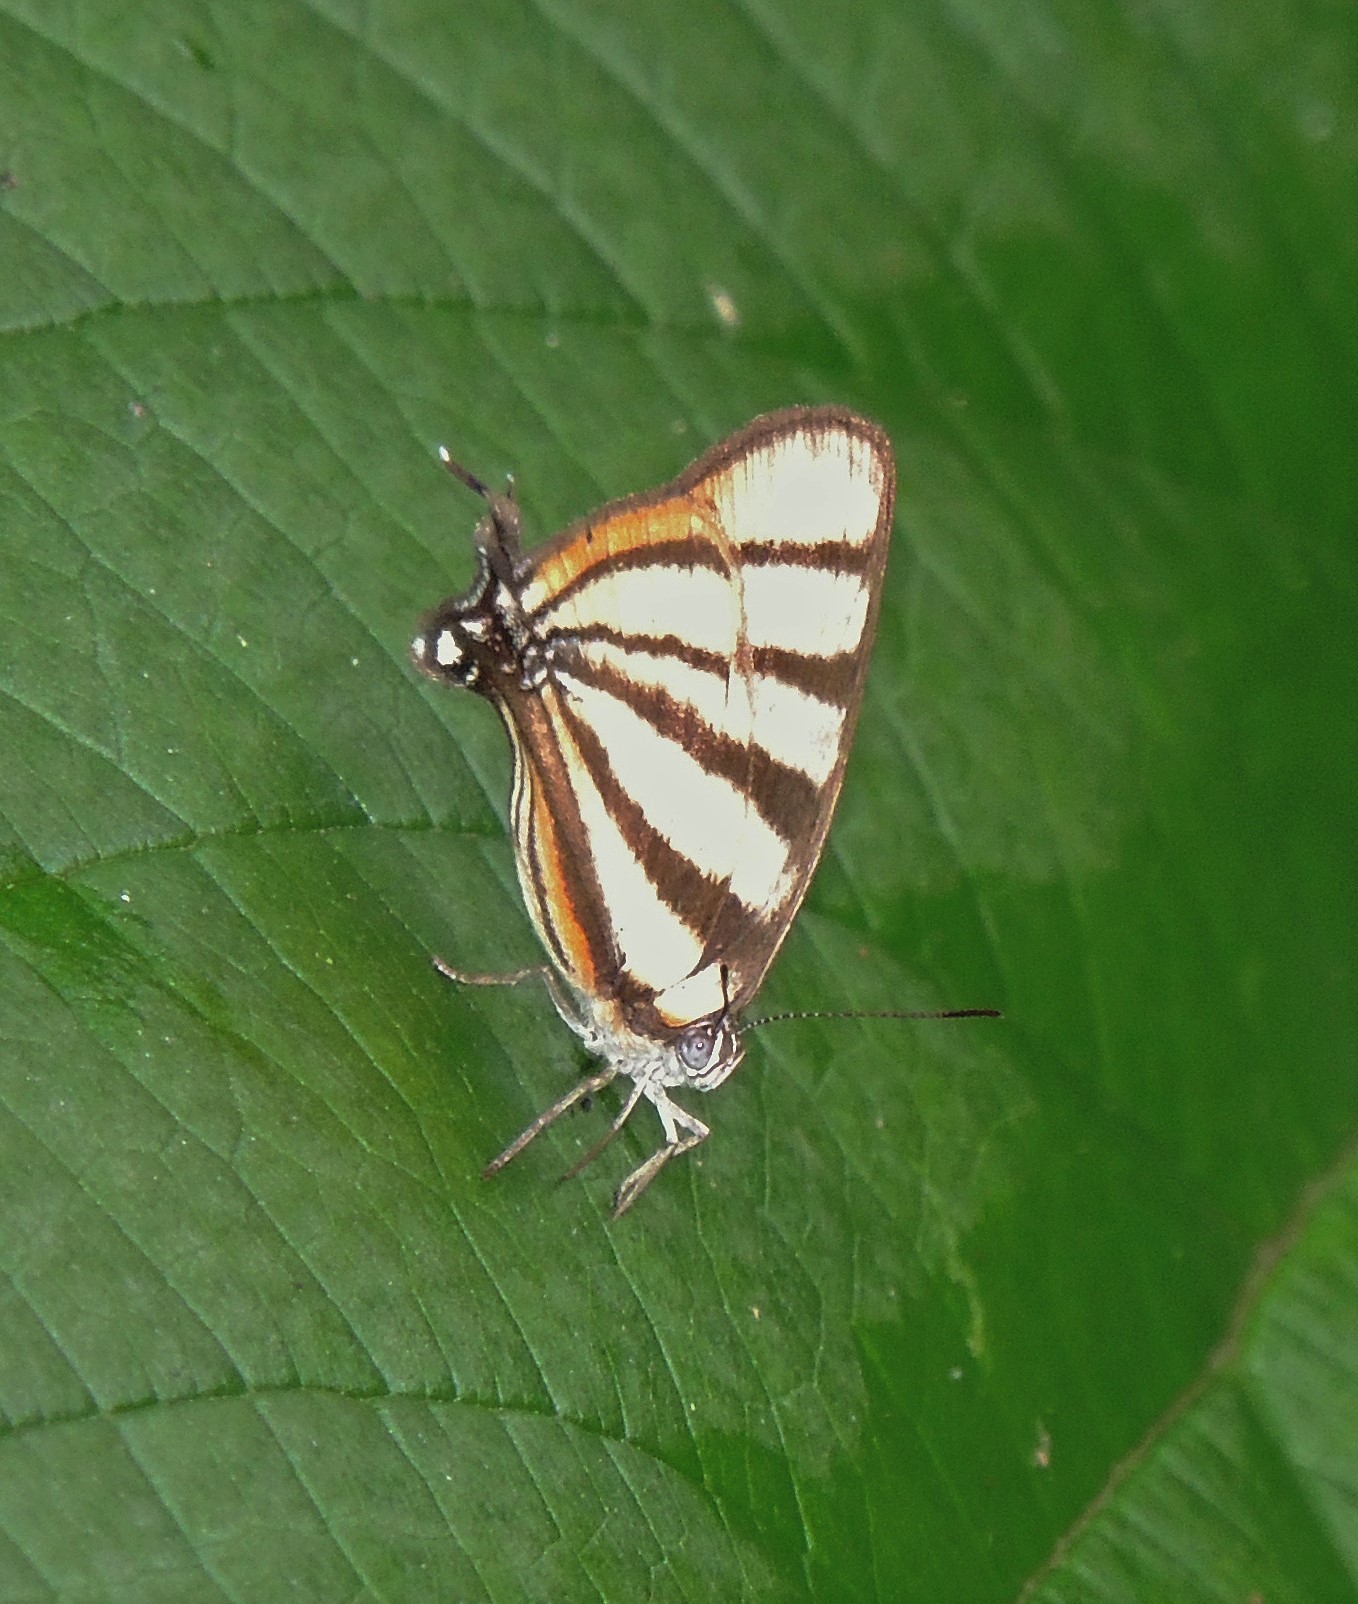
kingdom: Animalia
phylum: Arthropoda
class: Insecta
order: Lepidoptera
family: Lycaenidae
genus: Arawacus
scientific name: Arawacus separata
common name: Separated stripestreak
